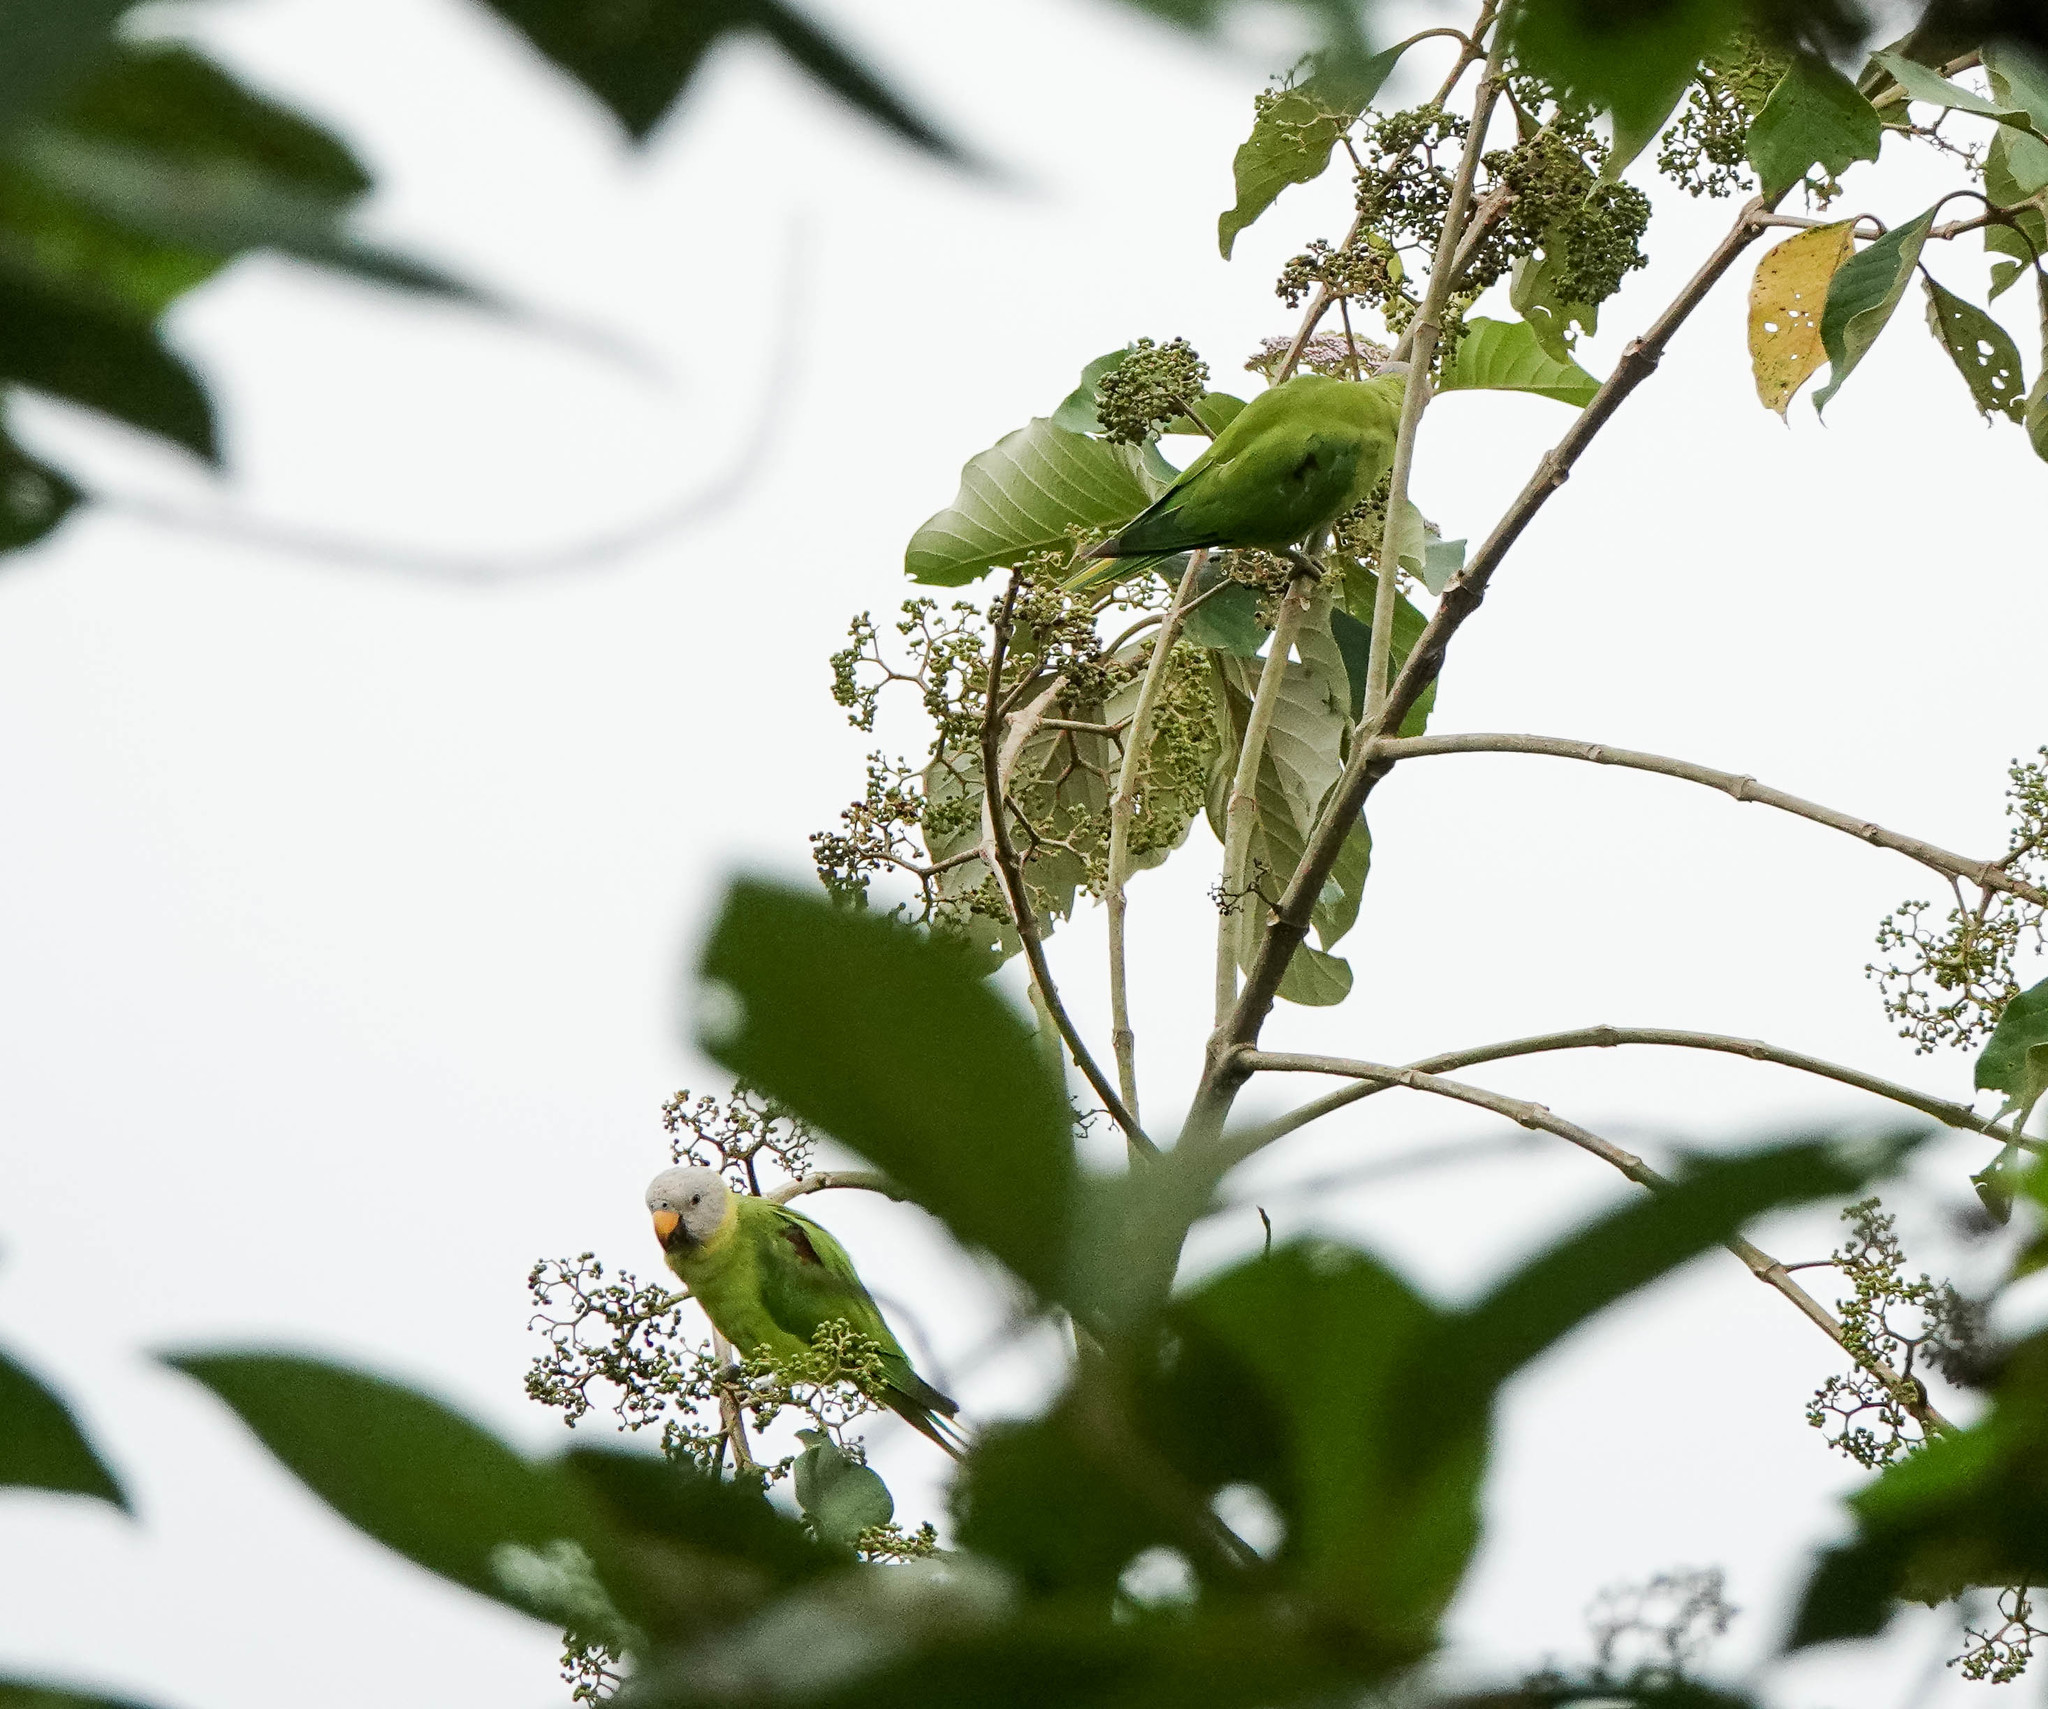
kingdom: Animalia
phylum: Chordata
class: Aves
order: Psittaciformes
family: Psittacidae
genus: Psittacula
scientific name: Psittacula roseata
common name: Blossom-headed parakeet
